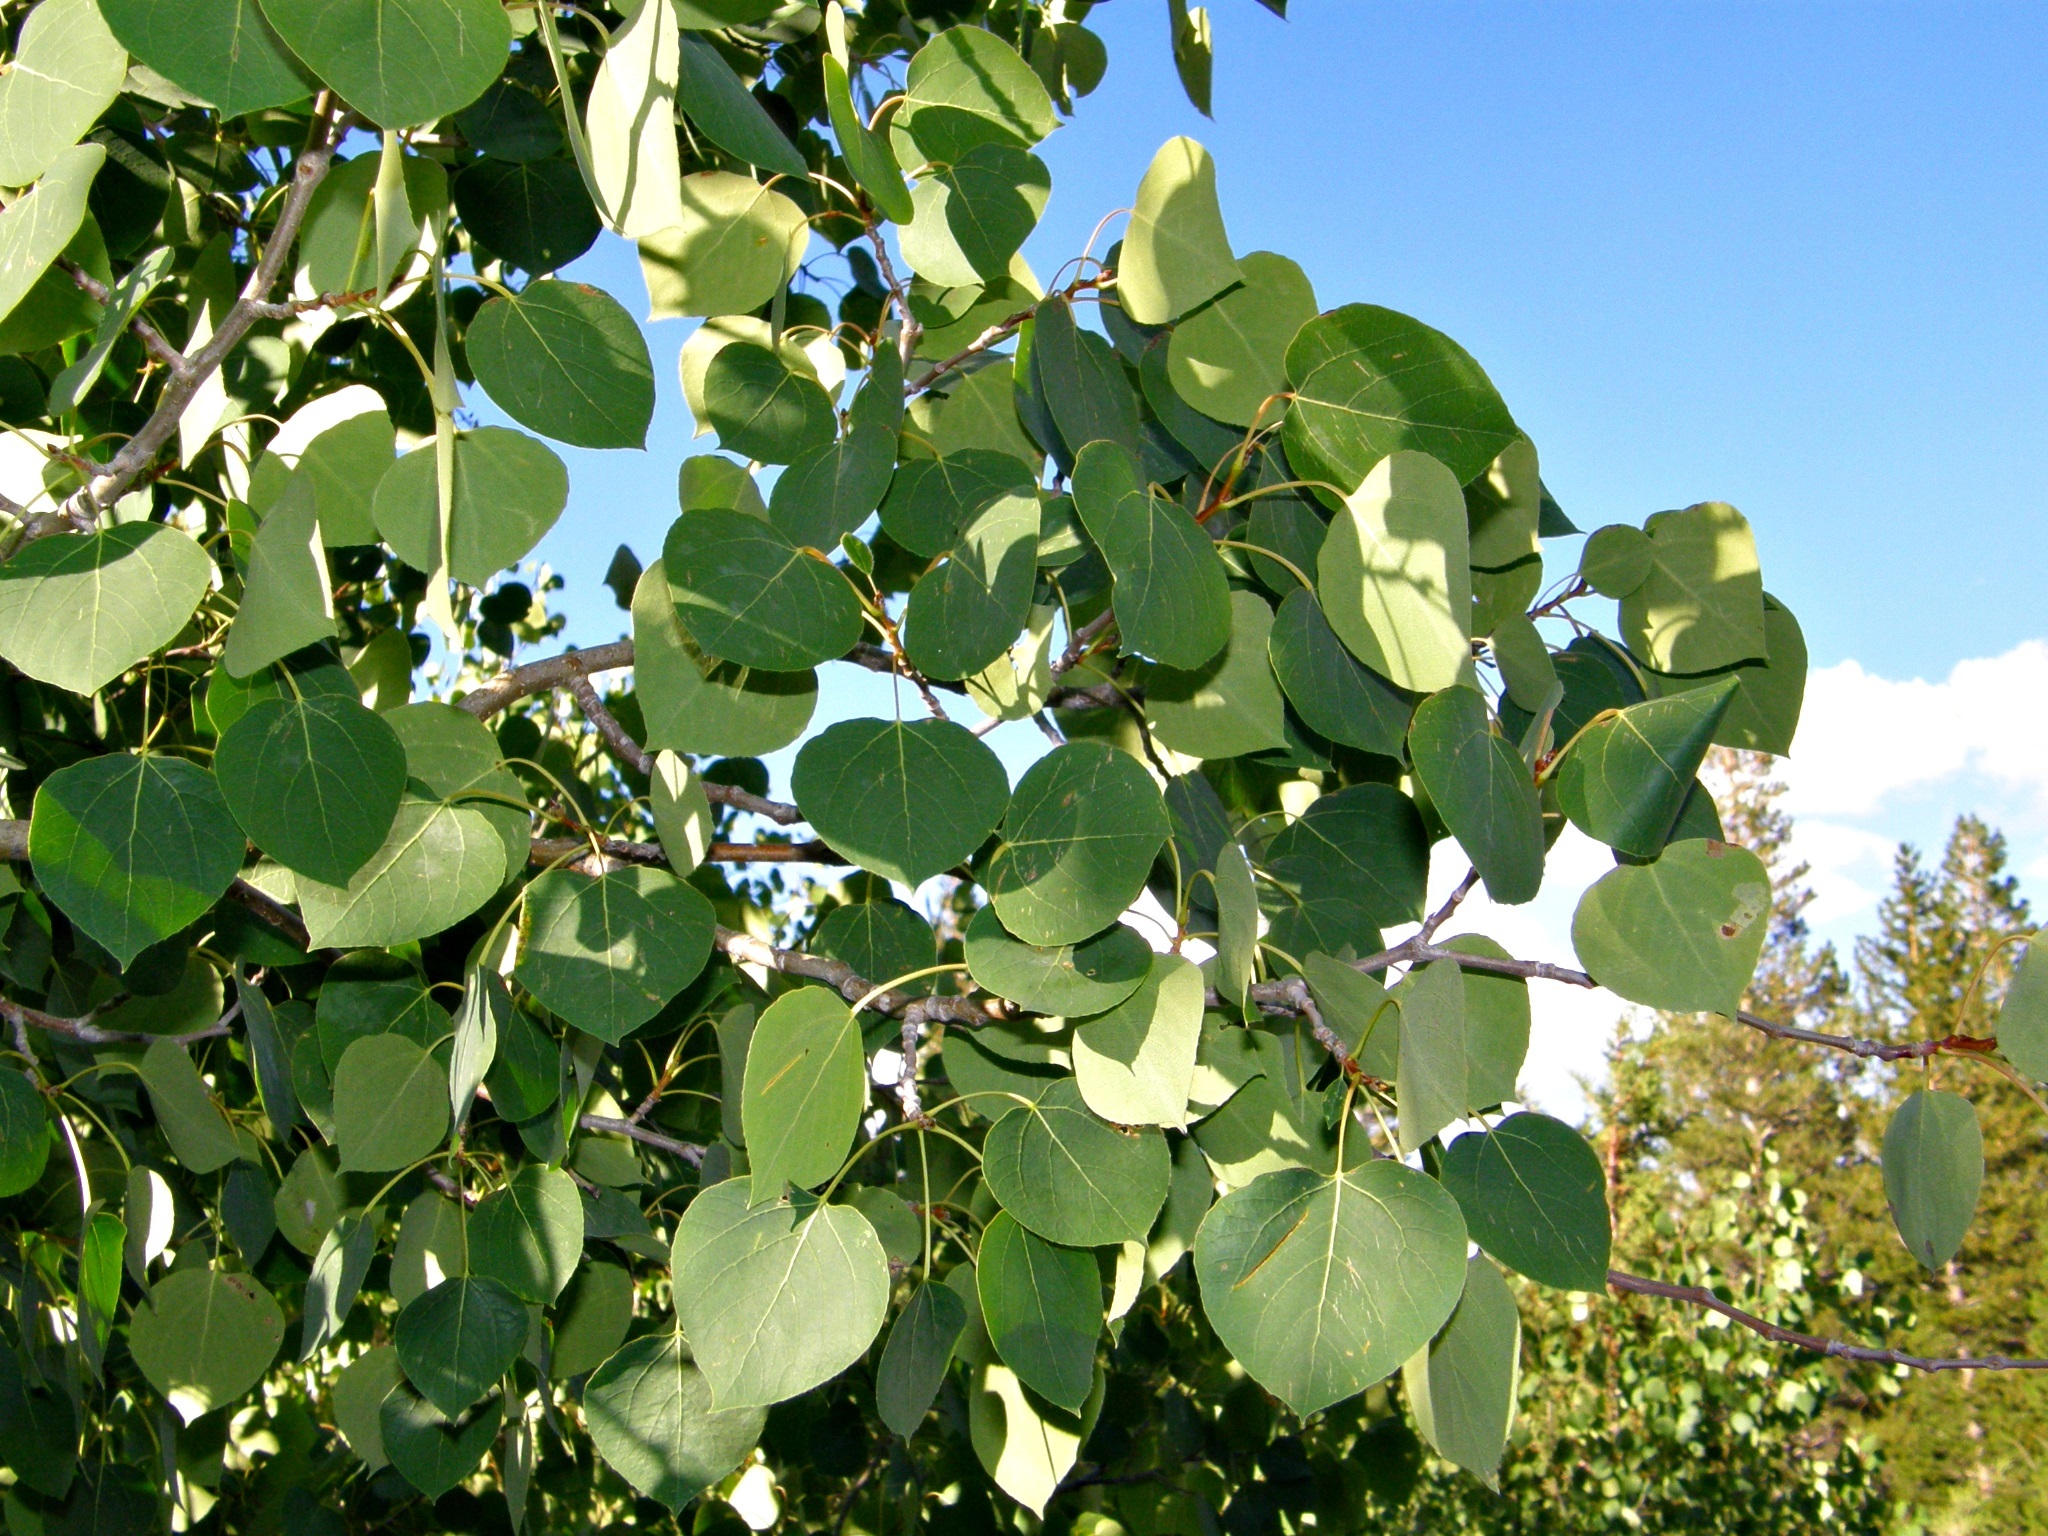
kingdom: Plantae
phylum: Tracheophyta
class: Magnoliopsida
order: Malpighiales
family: Salicaceae
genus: Populus
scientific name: Populus tremuloides
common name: Quaking aspen
